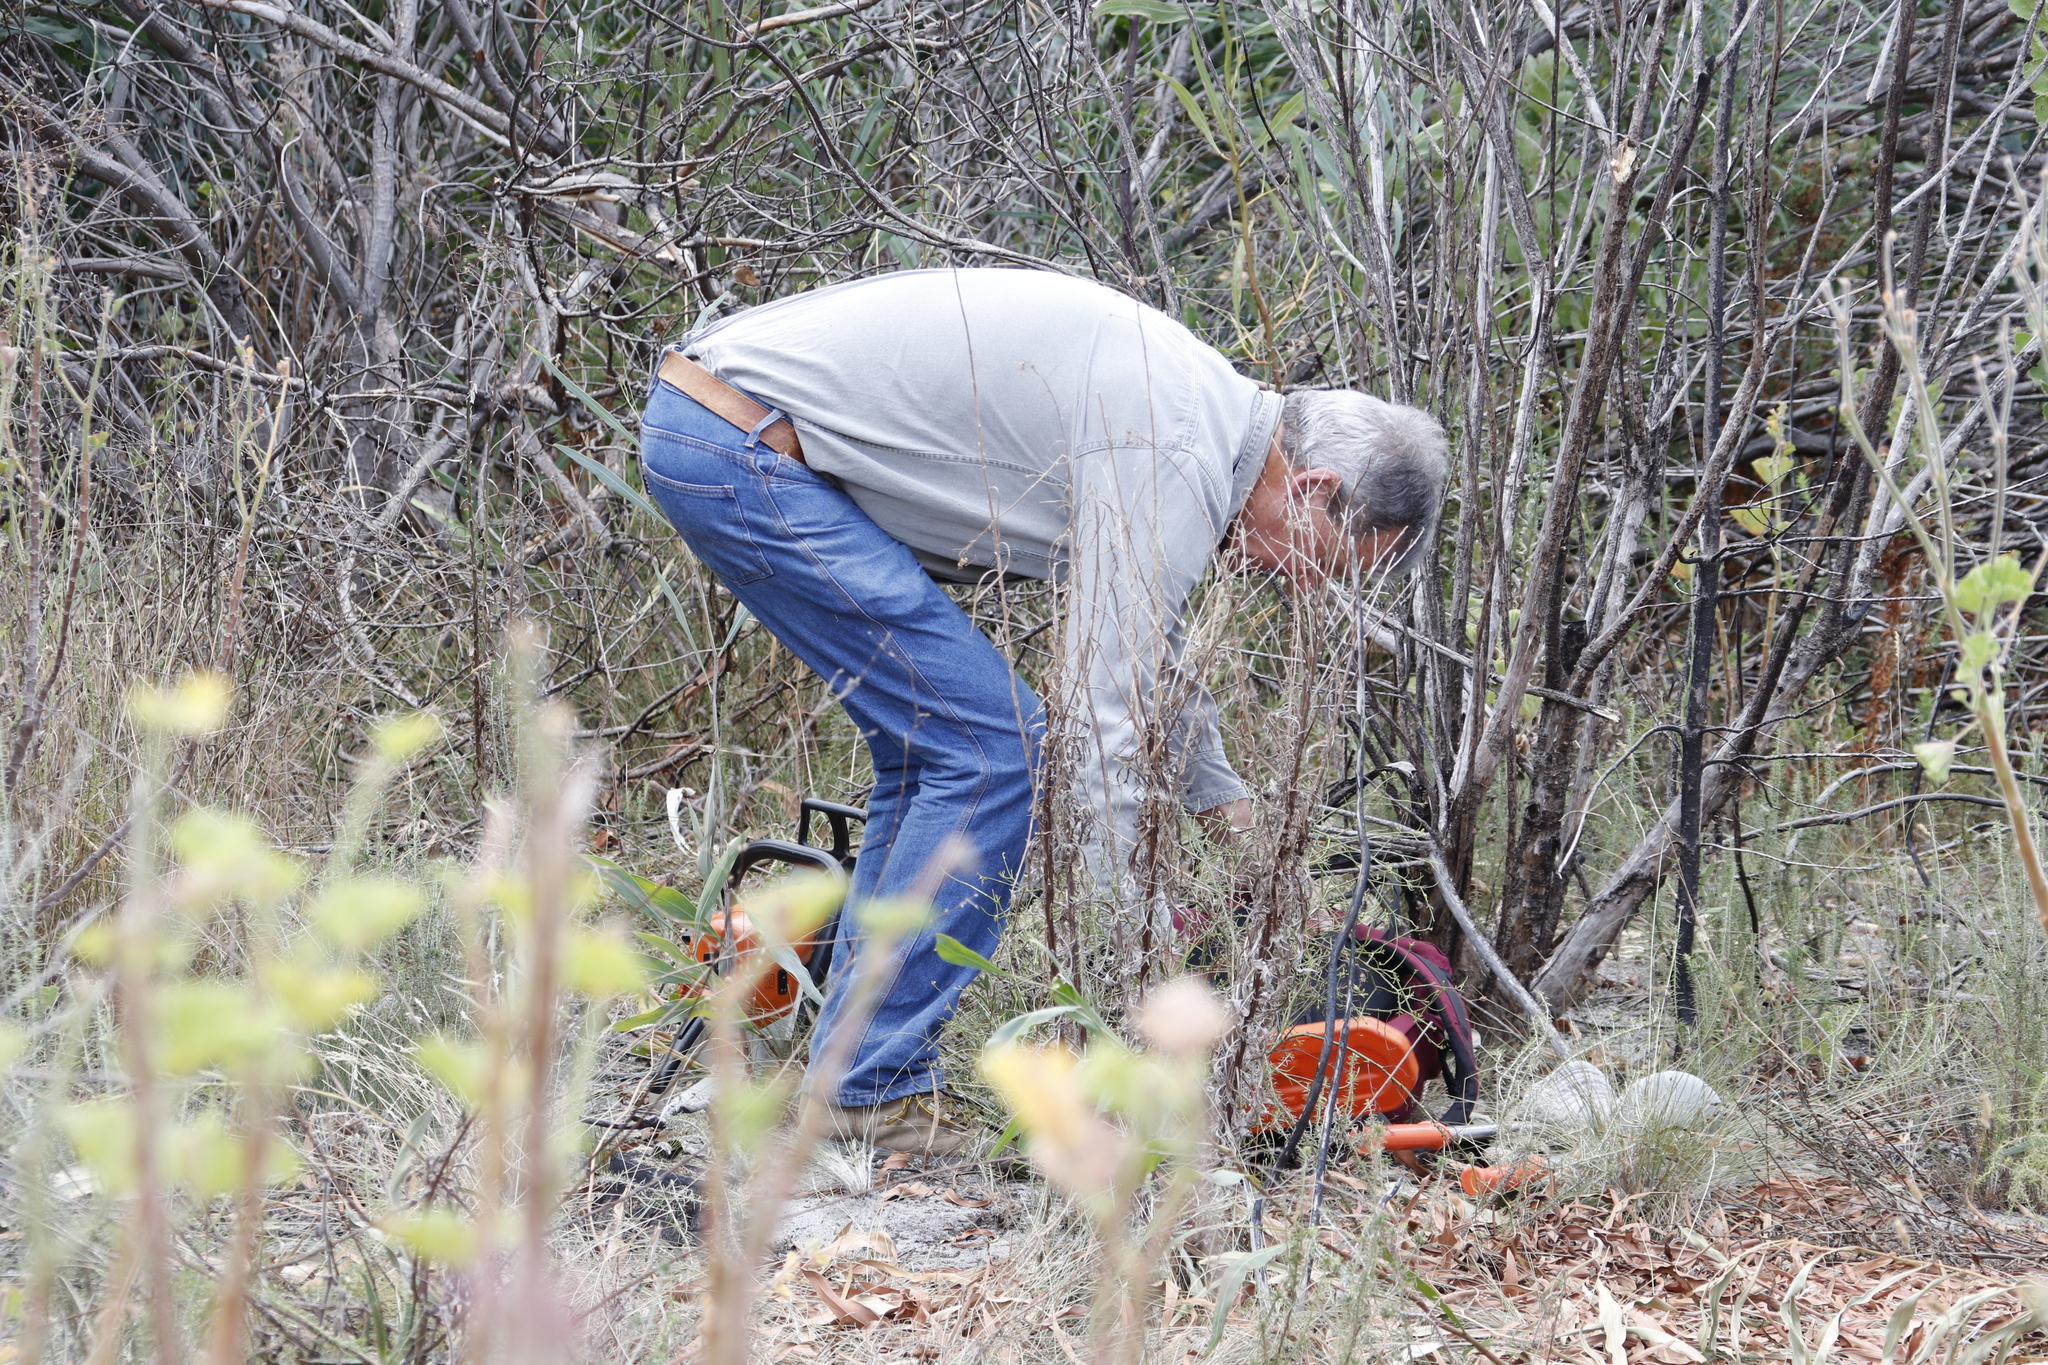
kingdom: Plantae
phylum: Tracheophyta
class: Magnoliopsida
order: Fabales
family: Fabaceae
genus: Acacia
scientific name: Acacia saligna
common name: Orange wattle
